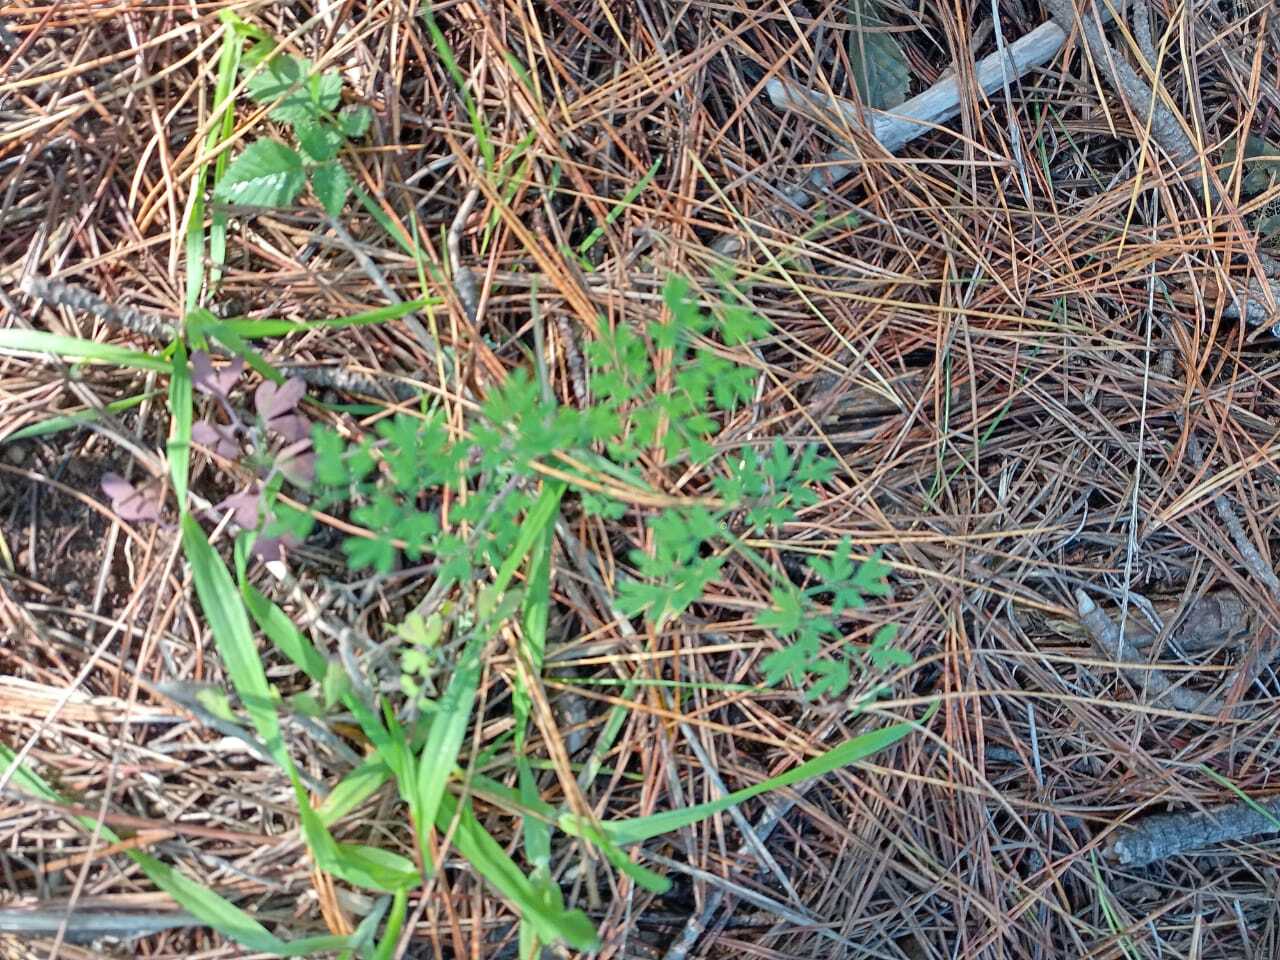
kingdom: Plantae
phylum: Tracheophyta
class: Magnoliopsida
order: Ranunculales
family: Papaveraceae
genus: Fumaria
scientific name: Fumaria muralis
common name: Common ramping-fumitory
